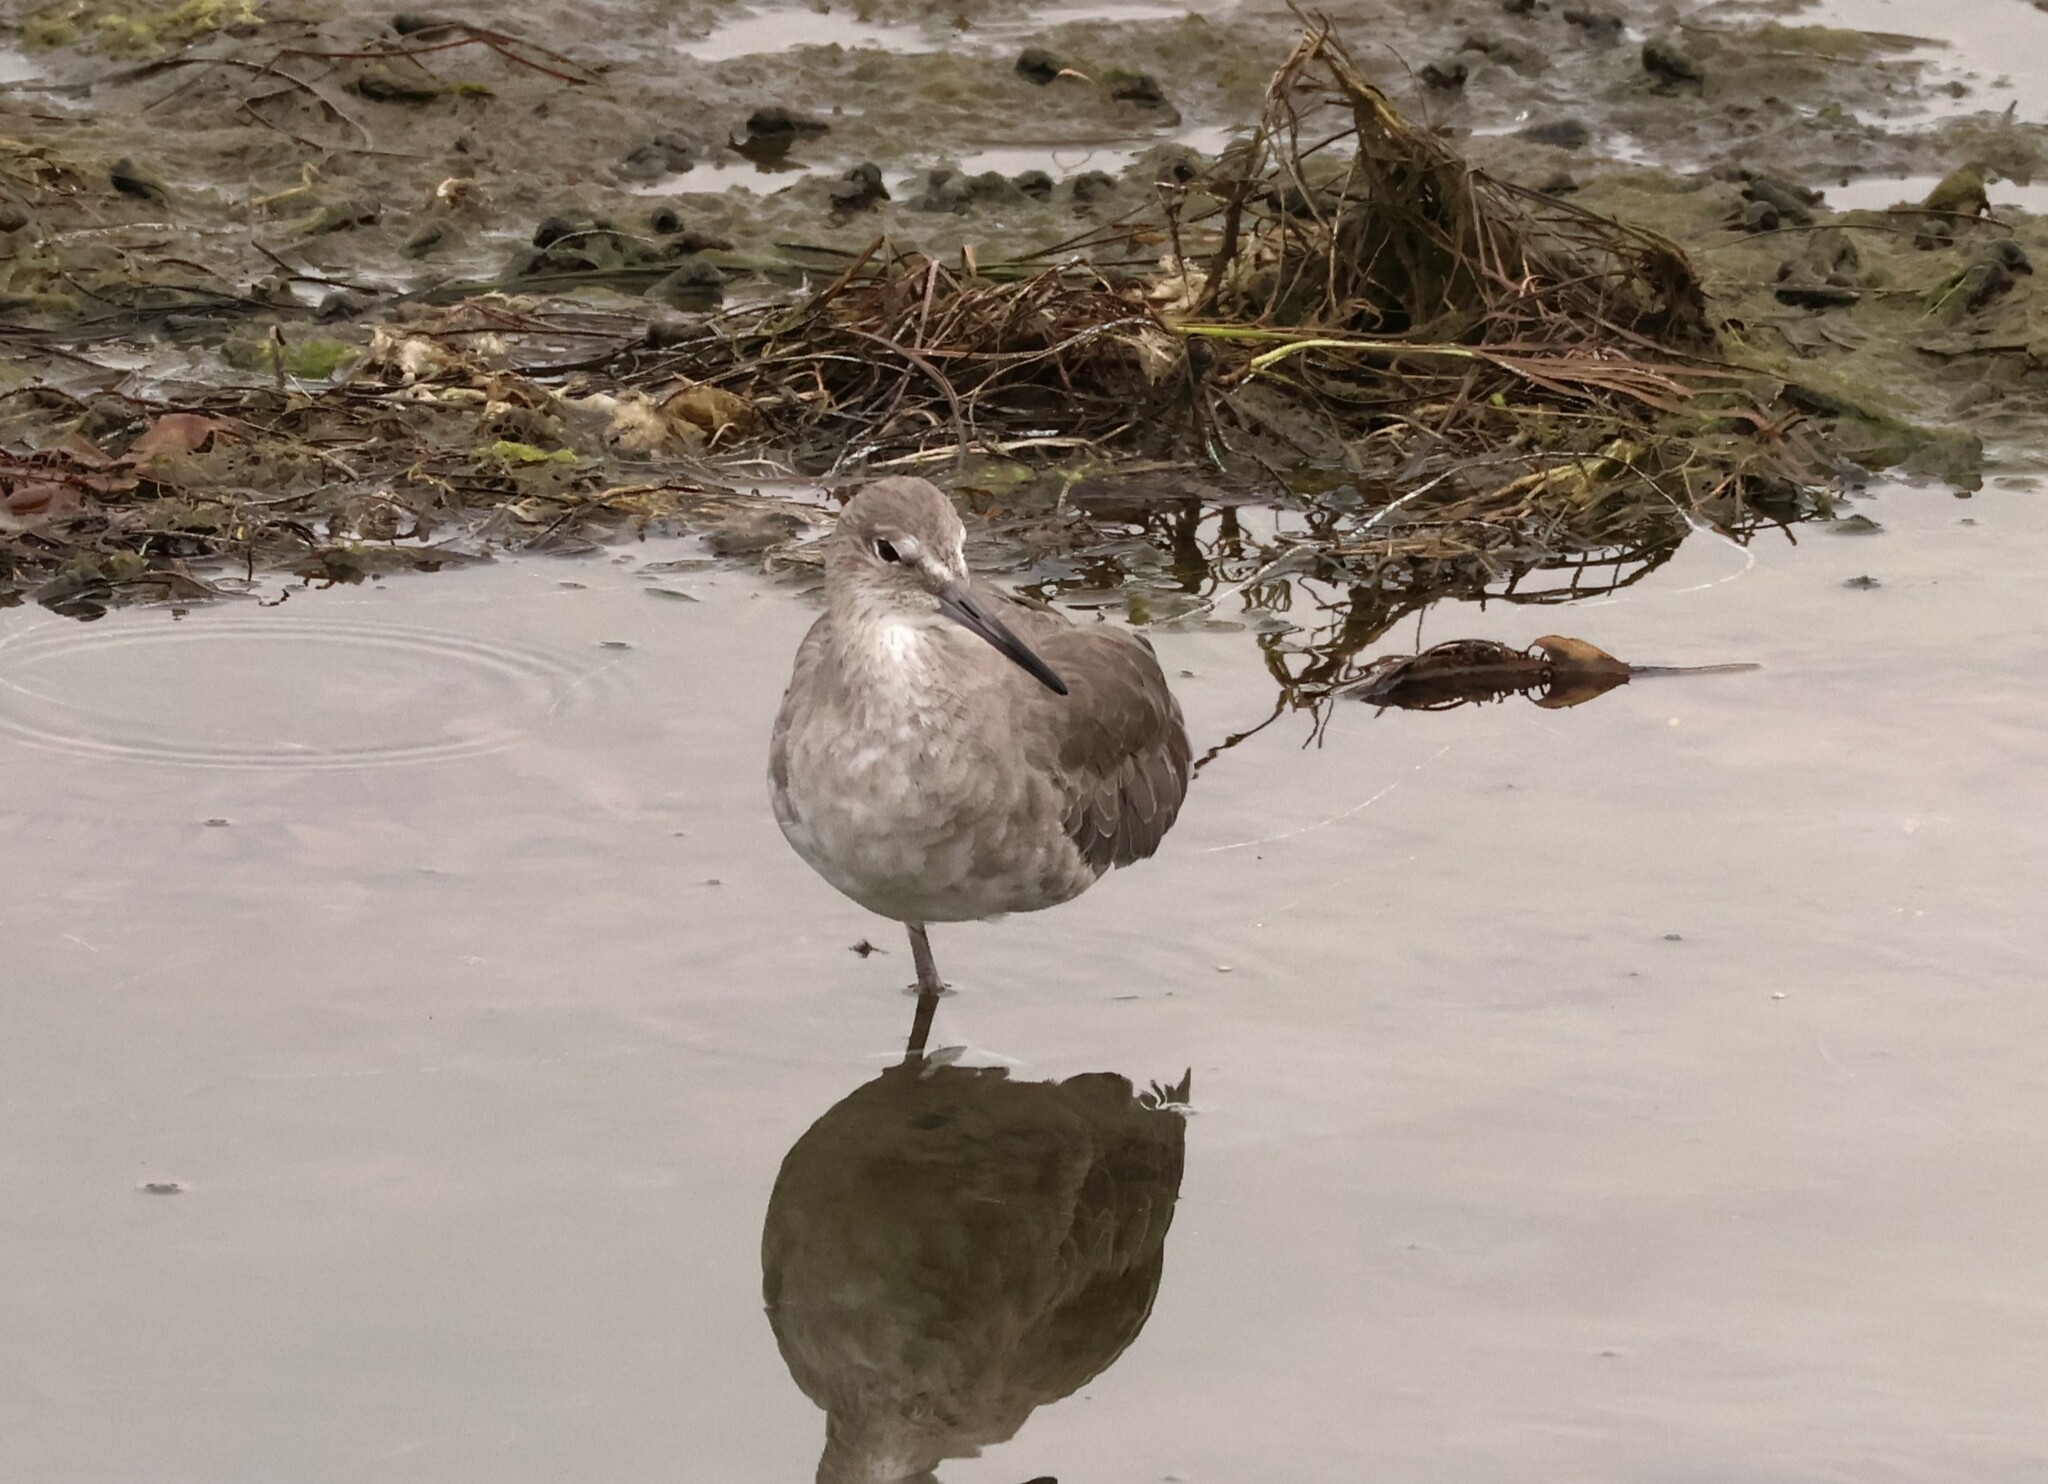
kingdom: Animalia
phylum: Chordata
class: Aves
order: Charadriiformes
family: Scolopacidae
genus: Tringa
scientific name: Tringa semipalmata
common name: Willet
